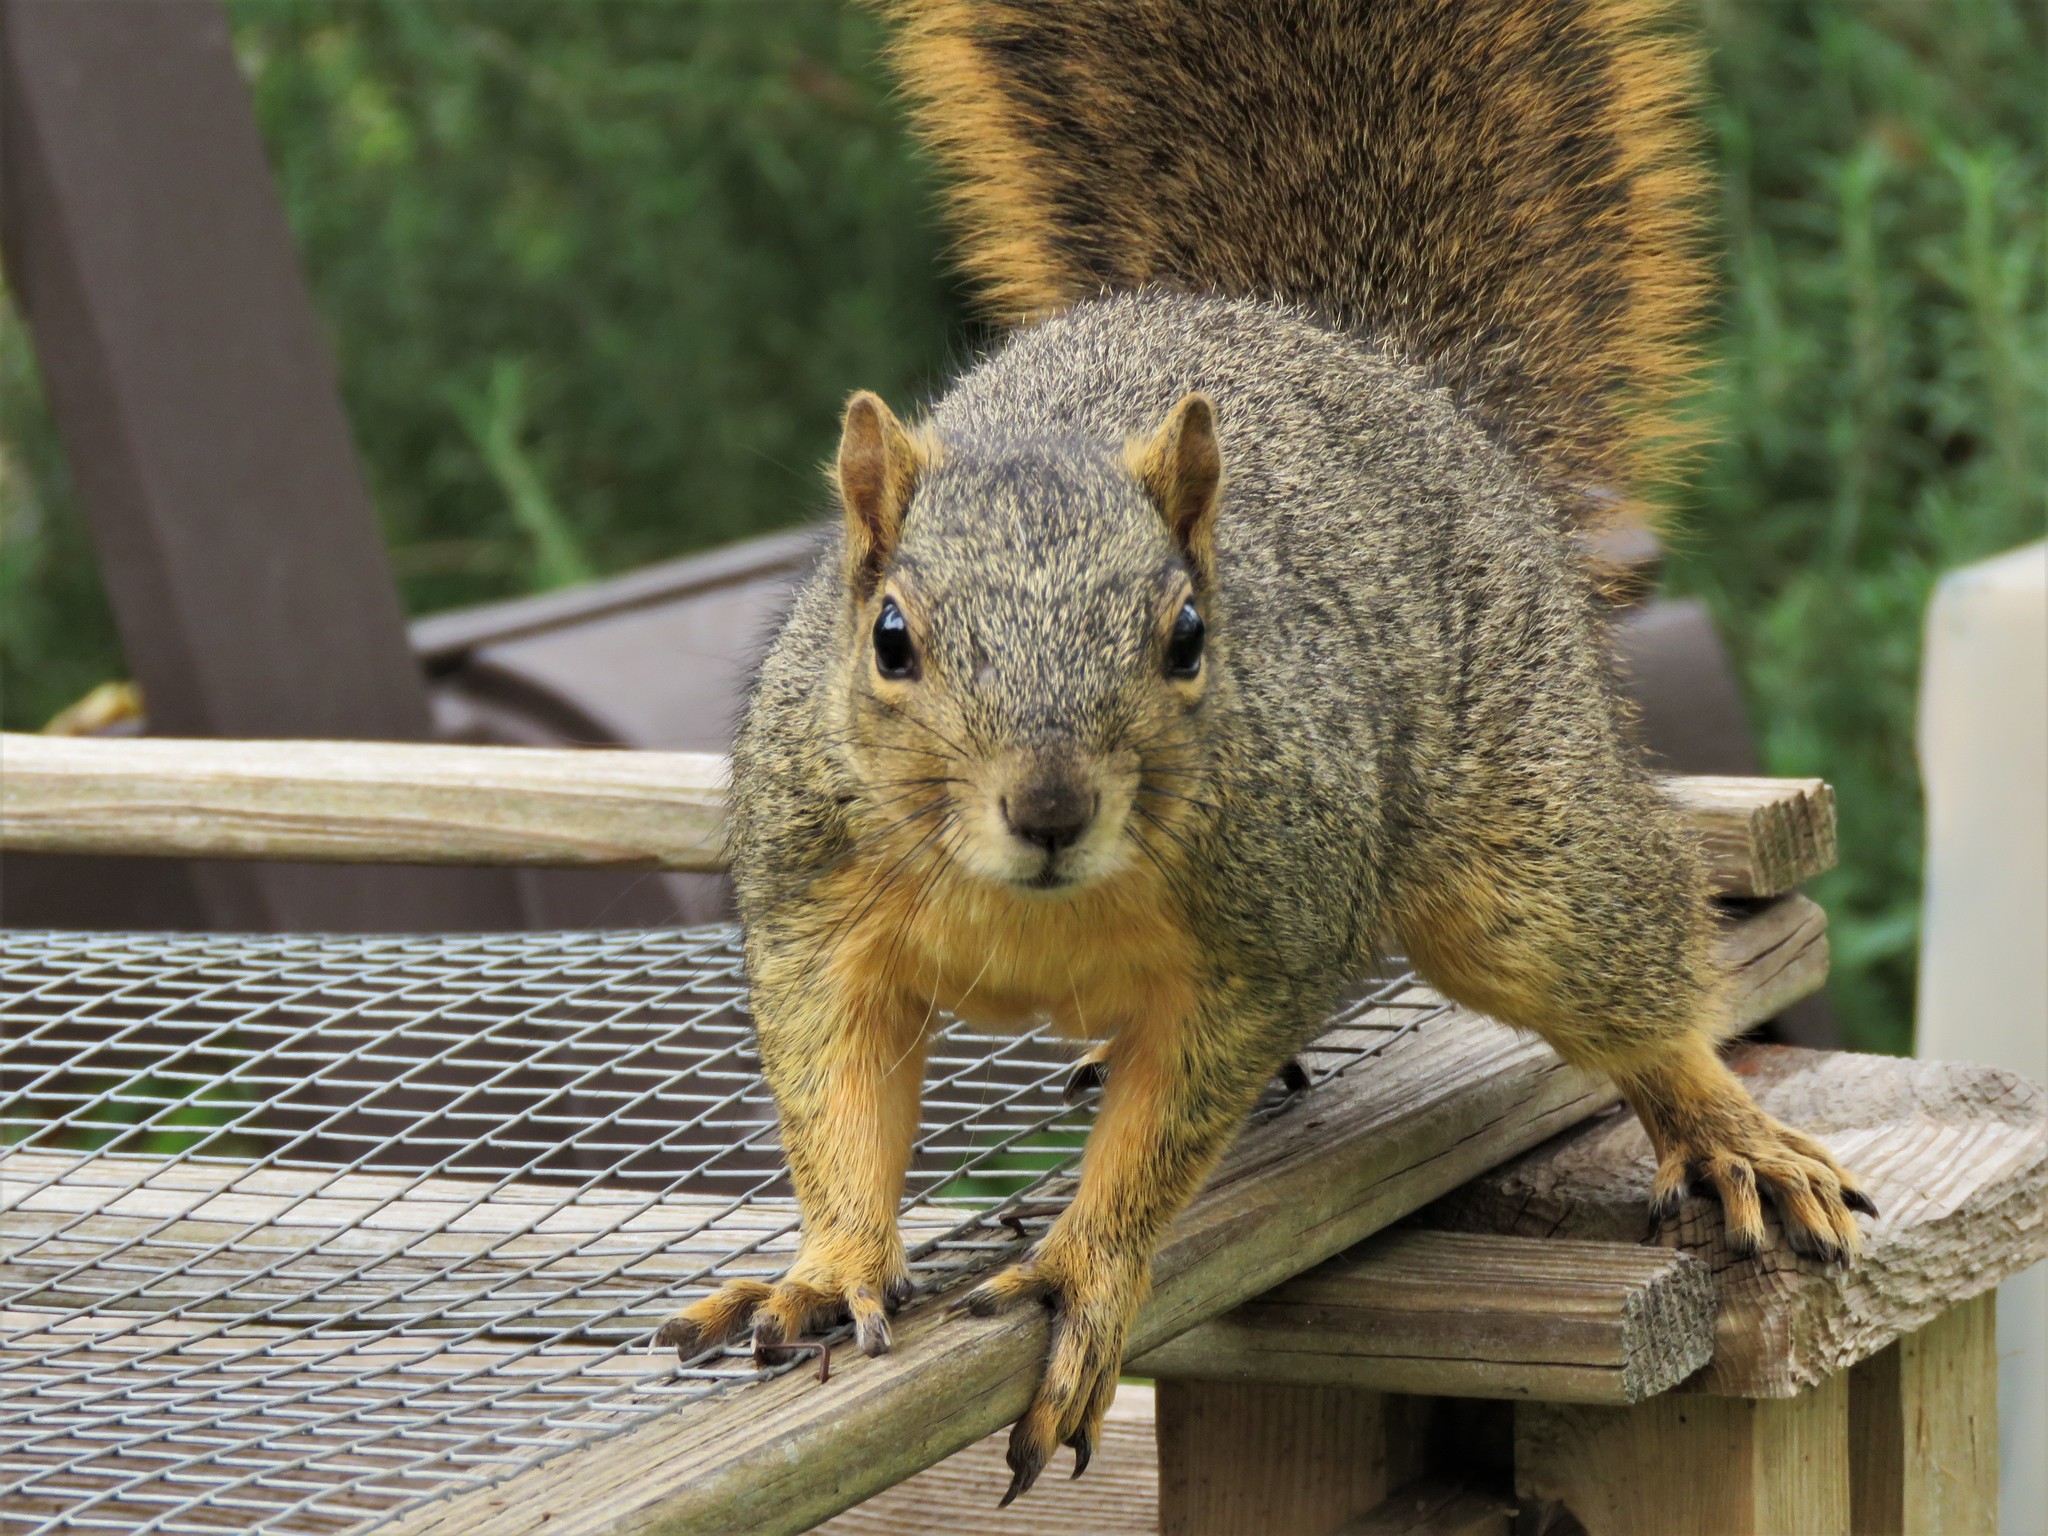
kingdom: Animalia
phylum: Chordata
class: Mammalia
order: Rodentia
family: Sciuridae
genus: Sciurus
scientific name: Sciurus niger
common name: Fox squirrel
